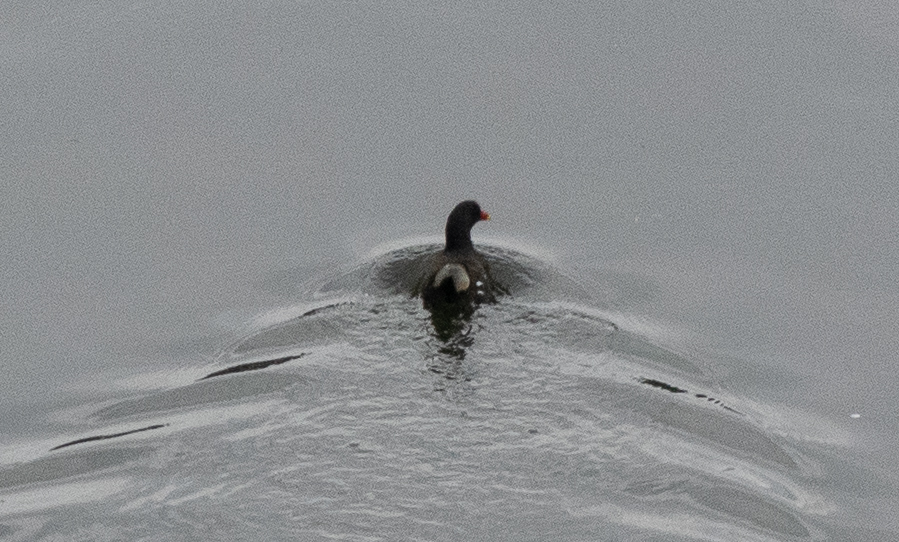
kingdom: Animalia
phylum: Chordata
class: Aves
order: Gruiformes
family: Rallidae
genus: Gallinula
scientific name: Gallinula chloropus
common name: Common moorhen
